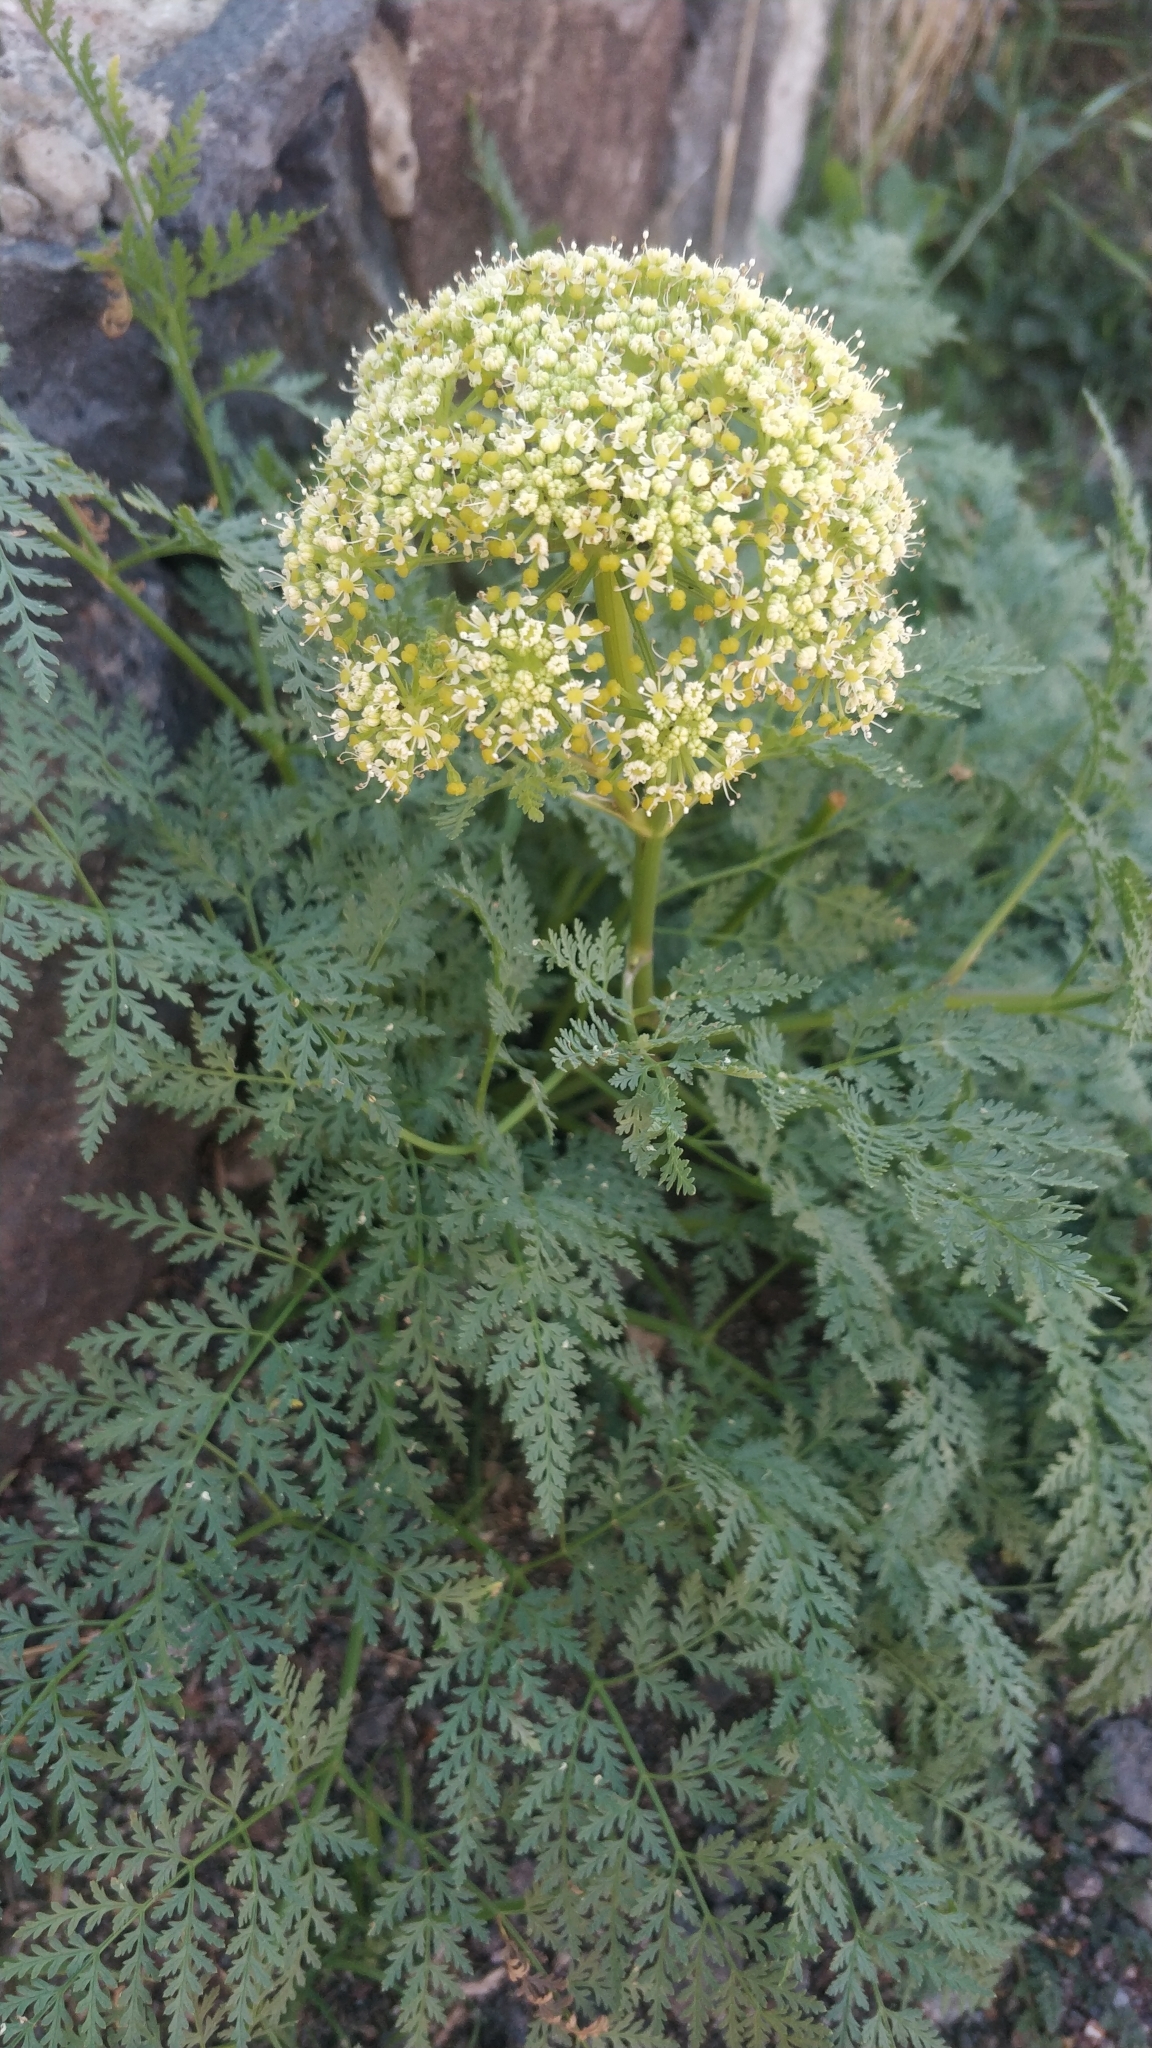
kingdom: Plantae
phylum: Tracheophyta
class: Magnoliopsida
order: Apiales
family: Apiaceae
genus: Todaroa
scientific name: Todaroa aurea
